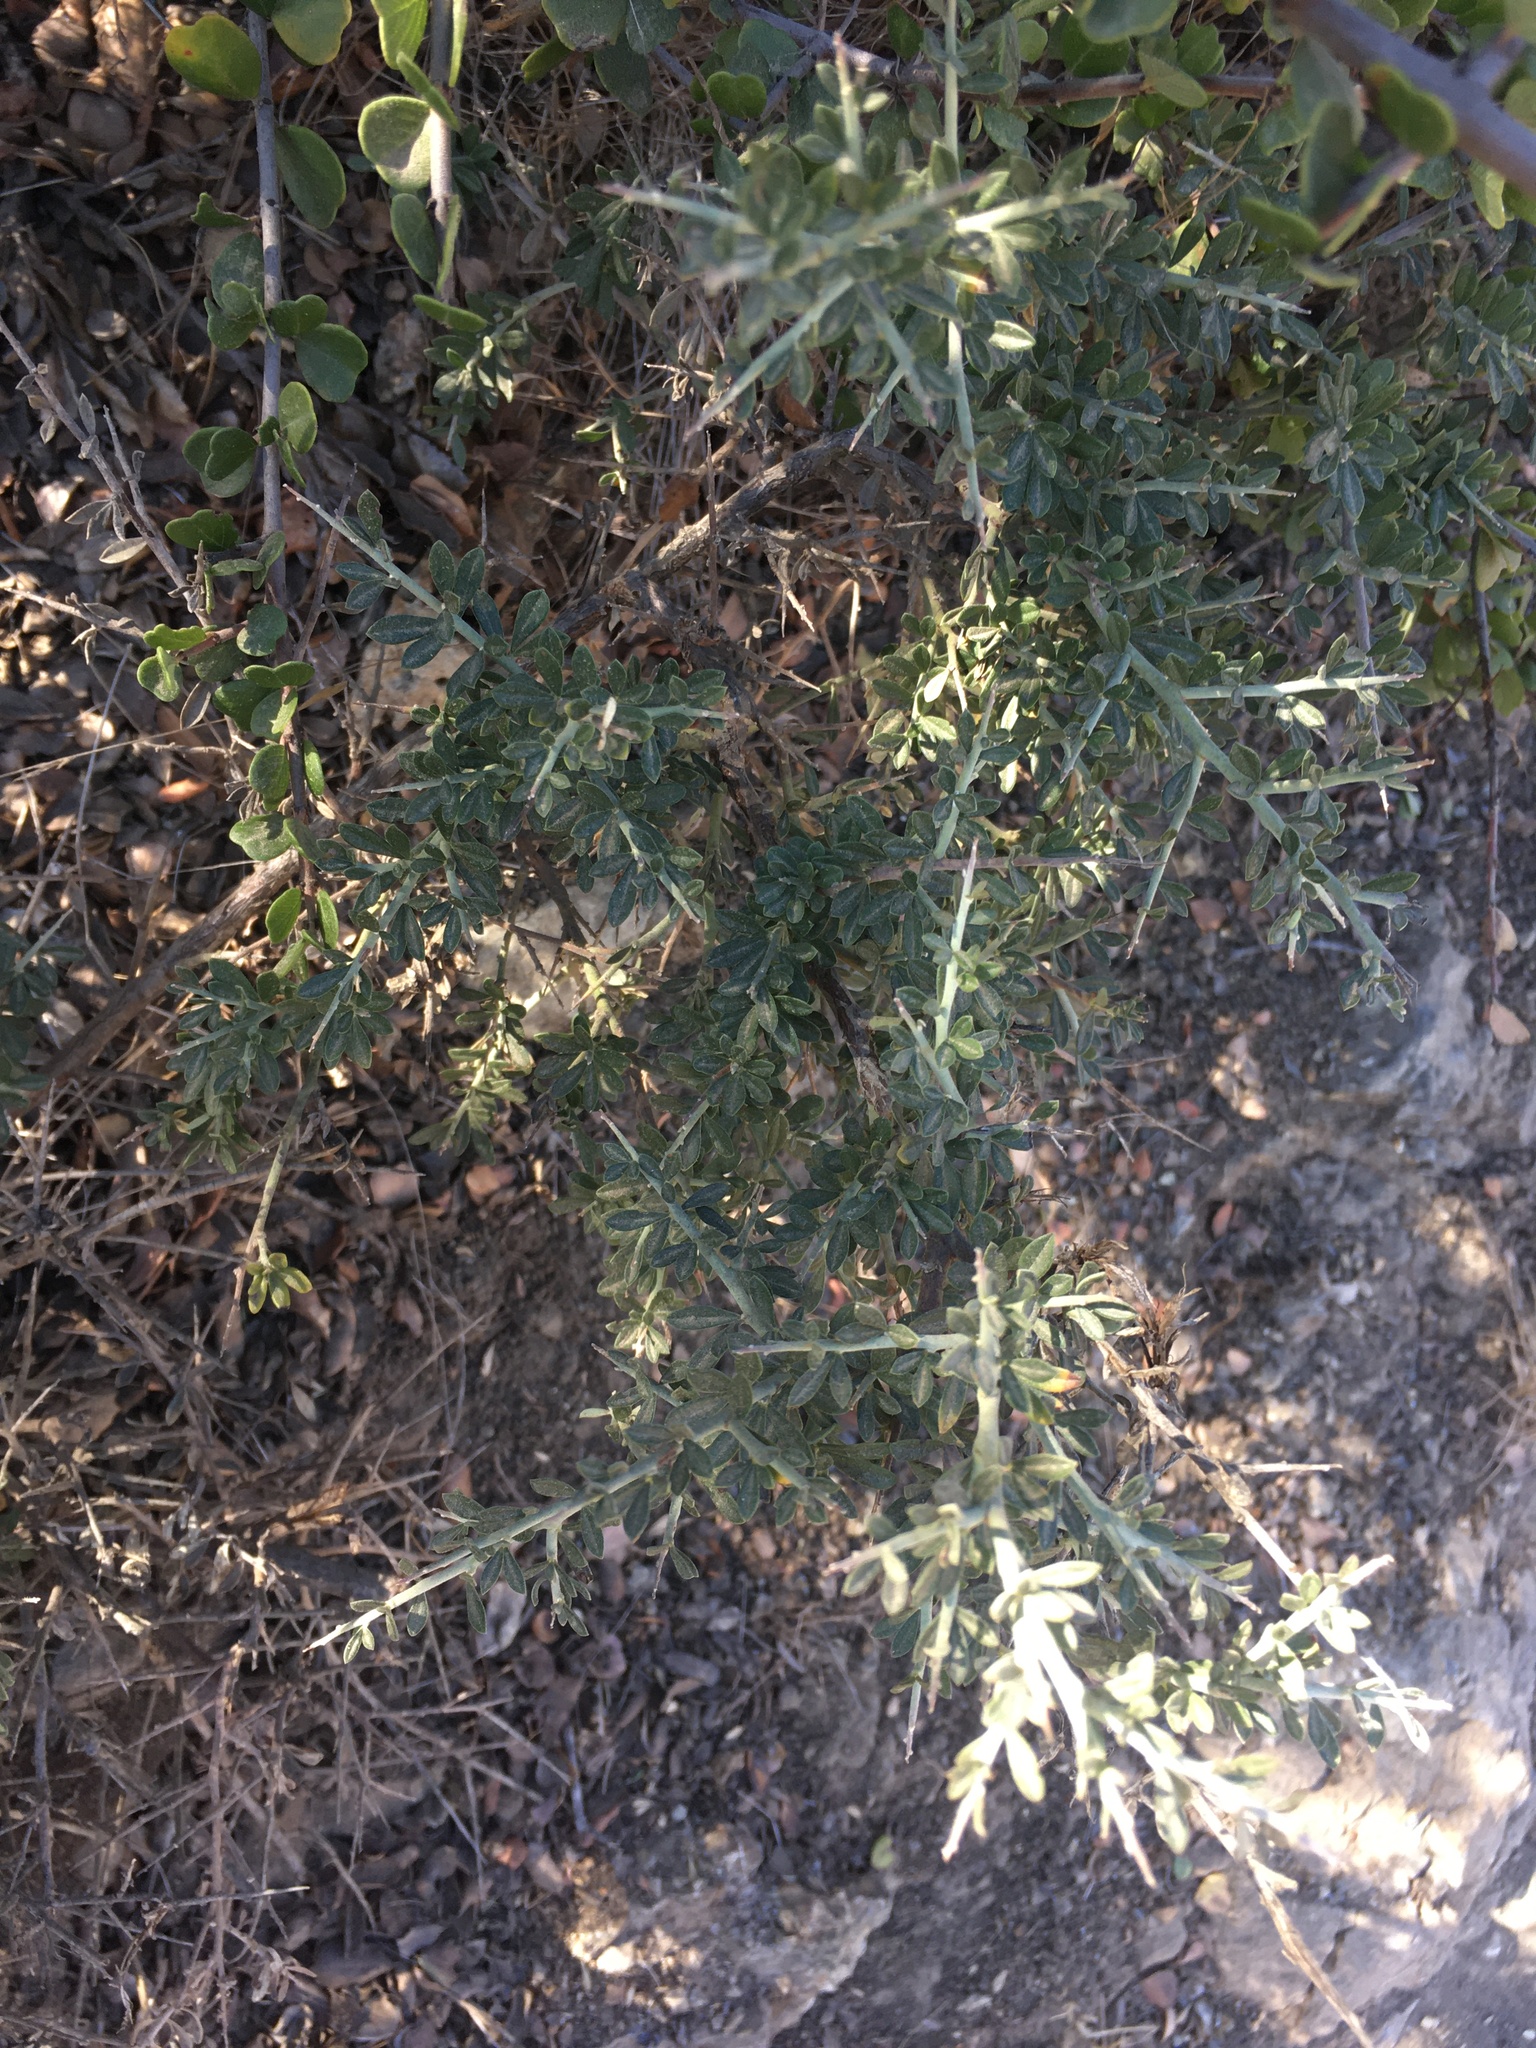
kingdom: Plantae
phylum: Tracheophyta
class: Magnoliopsida
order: Fabales
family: Fabaceae
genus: Pickeringia
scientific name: Pickeringia montana
